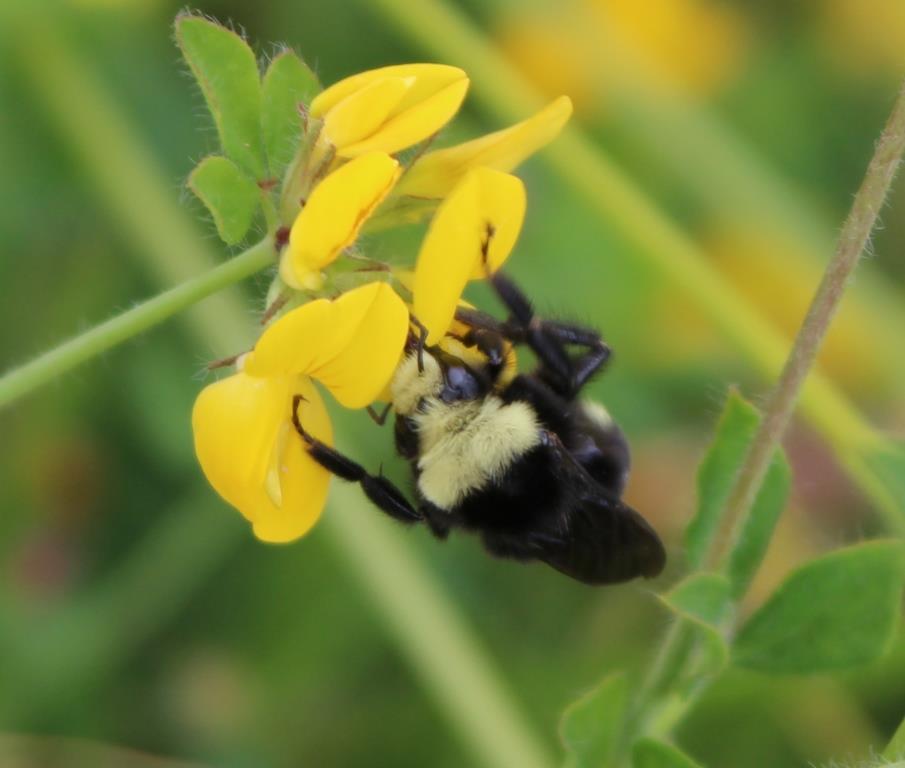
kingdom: Animalia
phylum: Arthropoda
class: Insecta
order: Hymenoptera
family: Apidae
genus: Bombus
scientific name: Bombus vosnesenskii
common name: Vosnesensky bumble bee
